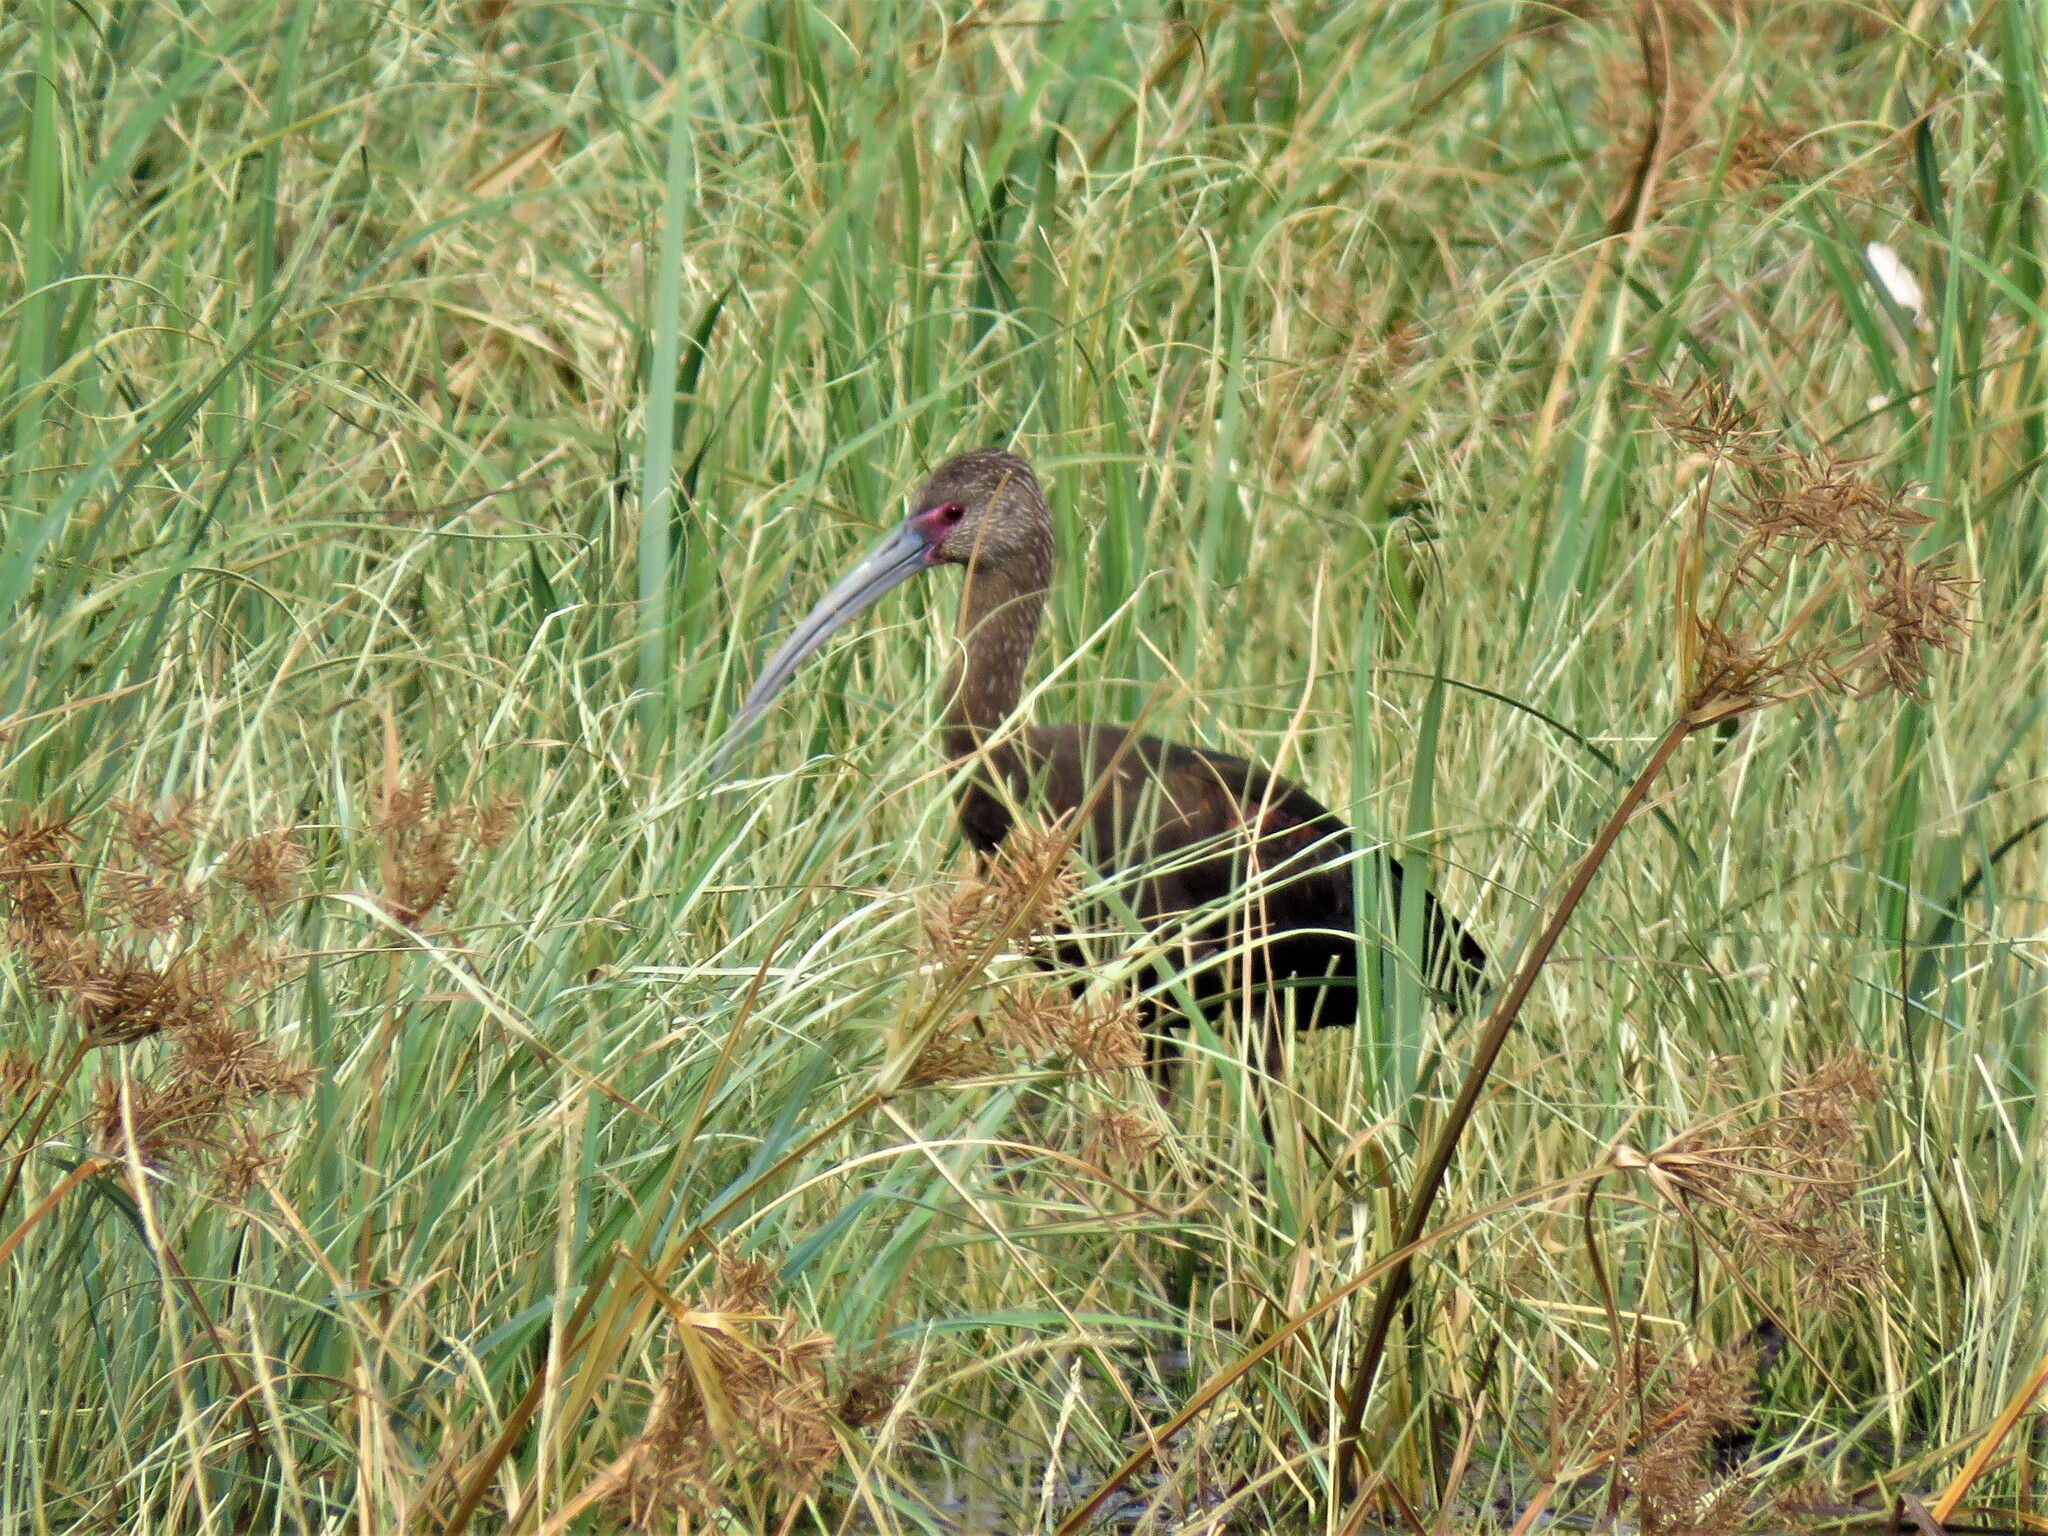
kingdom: Animalia
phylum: Chordata
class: Aves
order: Pelecaniformes
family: Threskiornithidae
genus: Plegadis
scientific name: Plegadis chihi
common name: White-faced ibis
